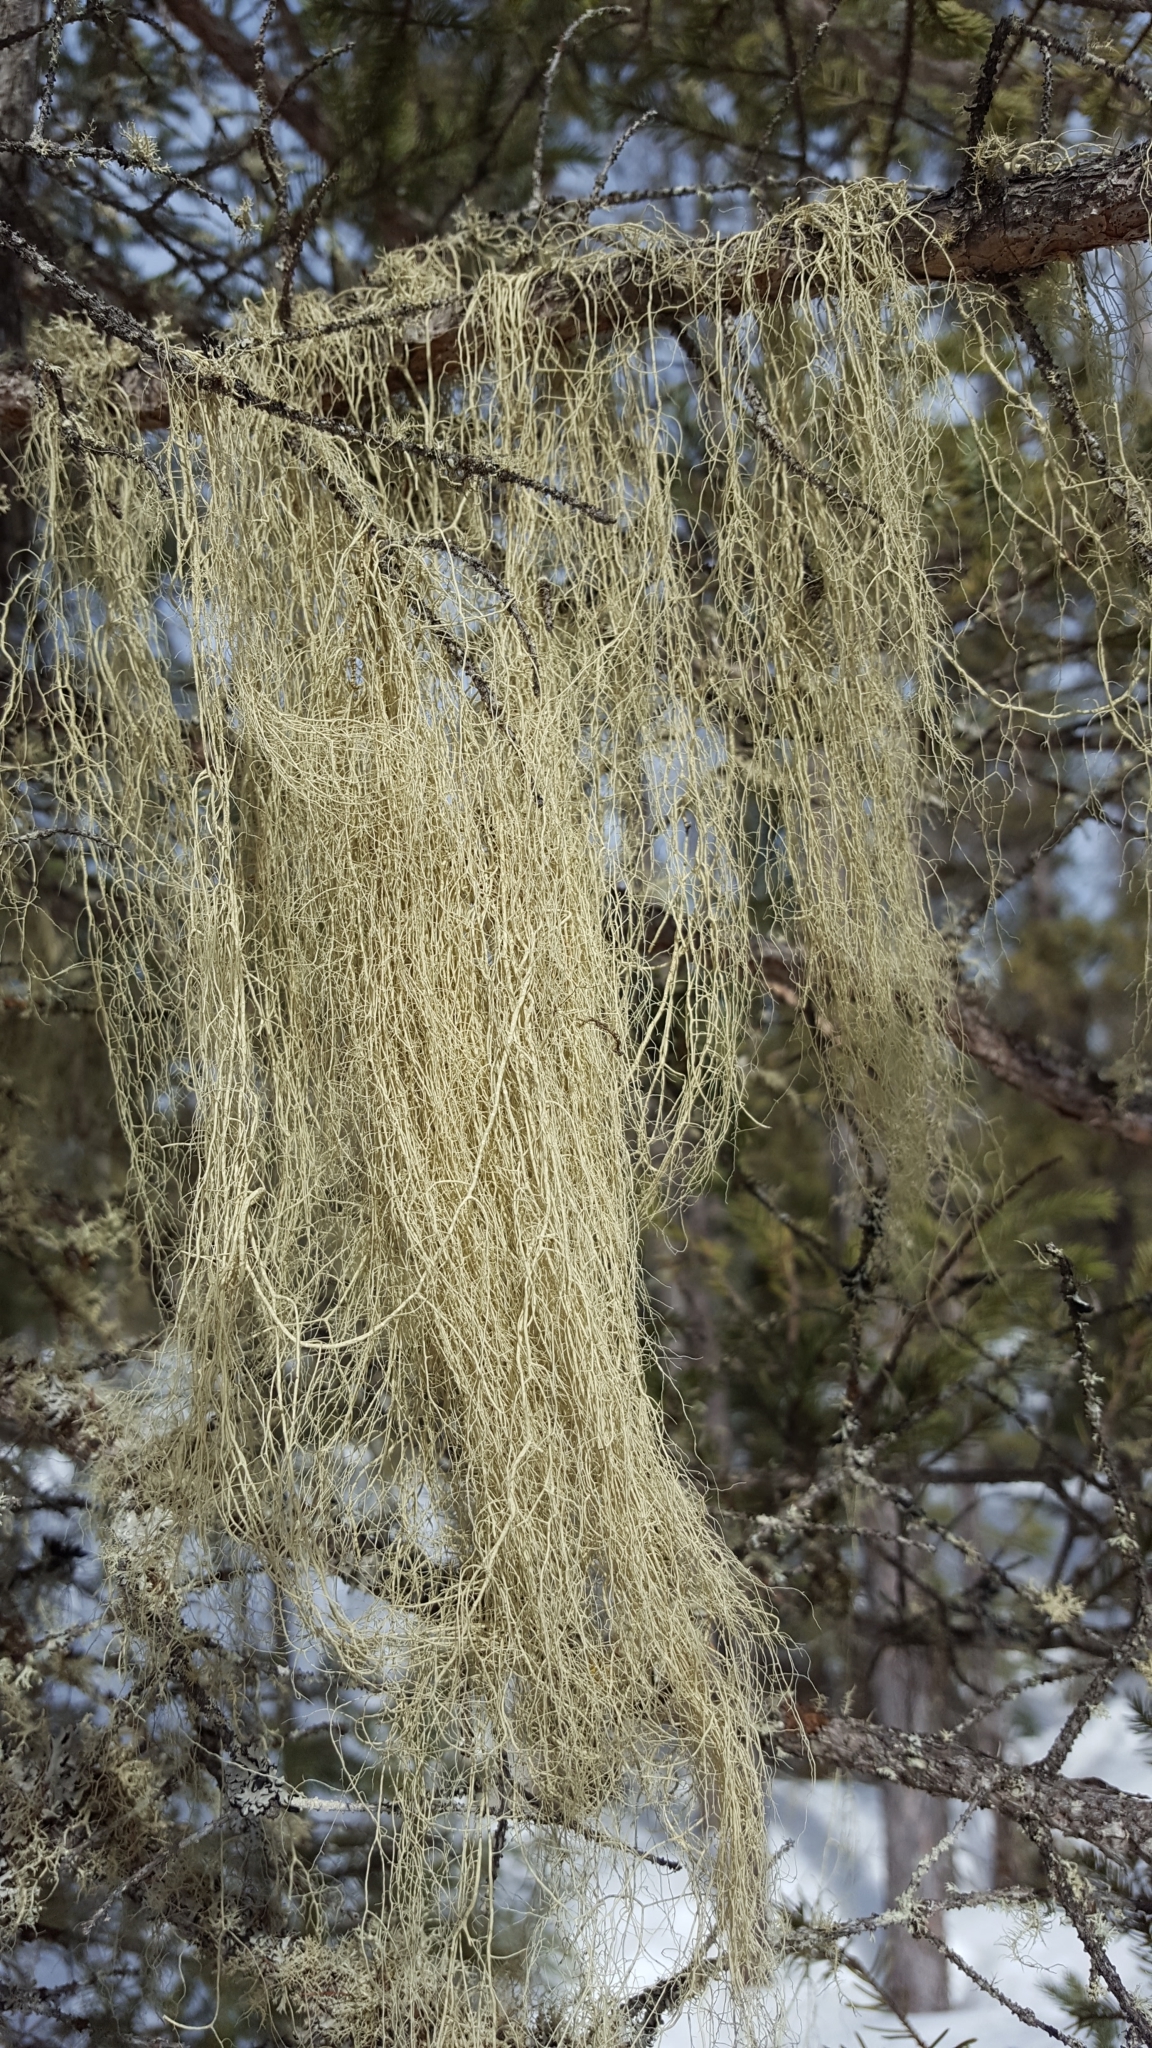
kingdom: Fungi
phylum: Ascomycota
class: Lecanoromycetes
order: Lecanorales
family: Parmeliaceae
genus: Usnea
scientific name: Usnea cavernosa
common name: Pitted beard lichen
